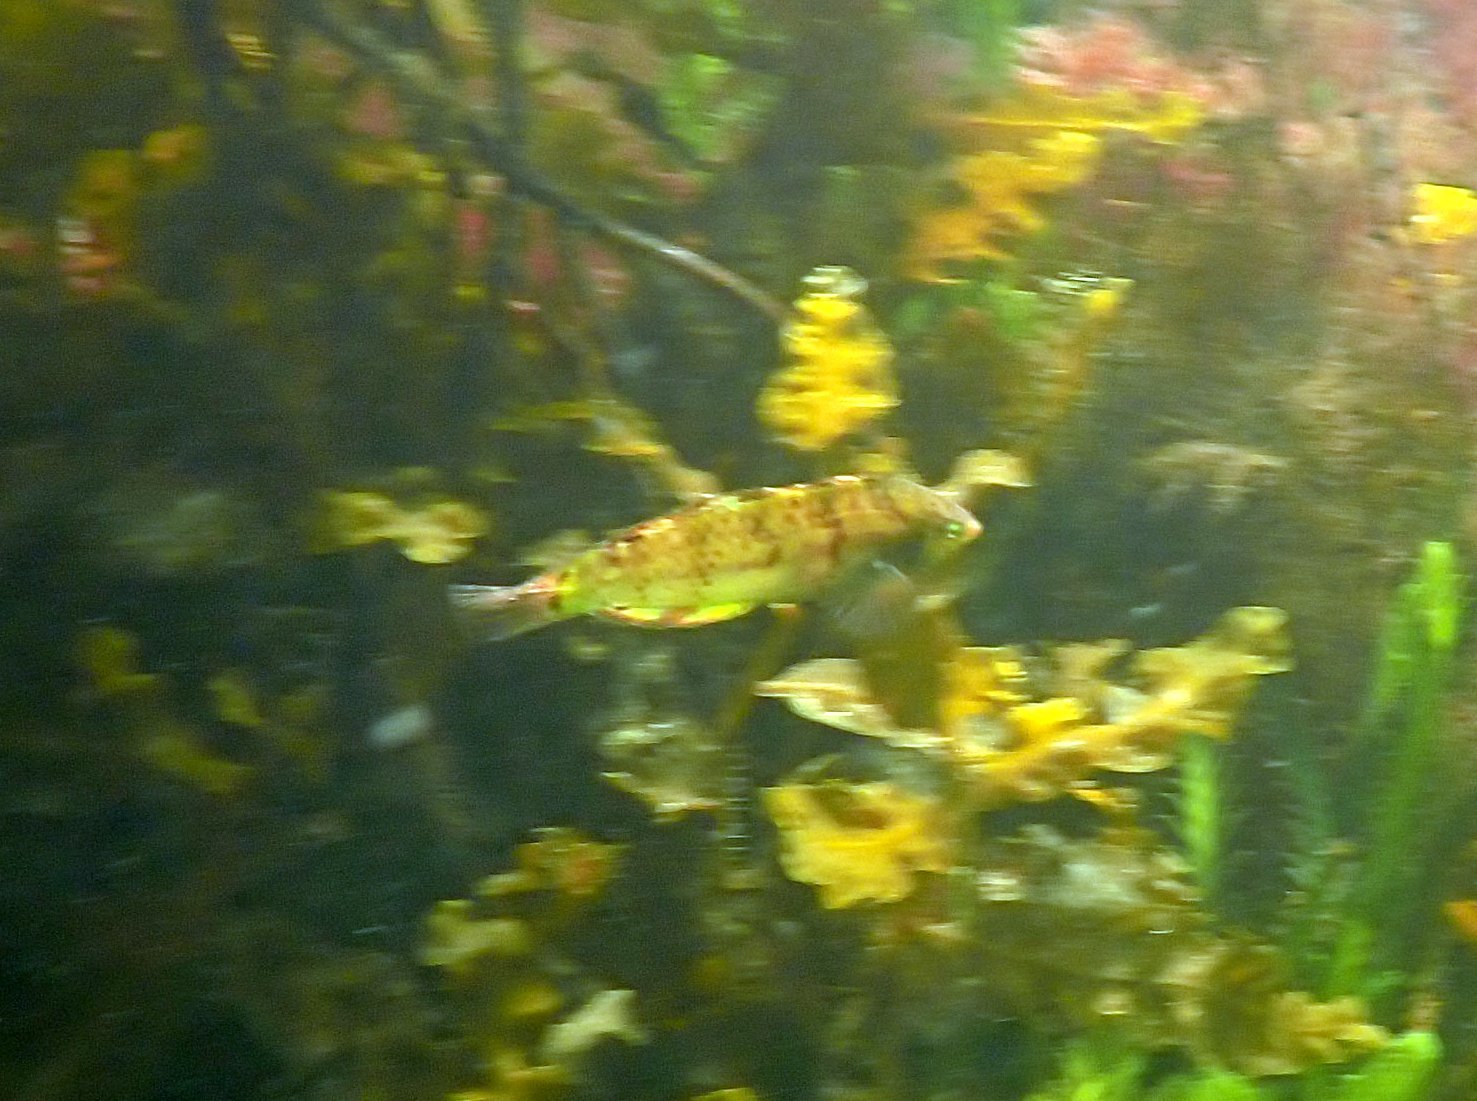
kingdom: Animalia
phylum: Chordata
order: Perciformes
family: Labridae
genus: Dotalabrus
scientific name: Dotalabrus aurantiacus
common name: Pretty polly
